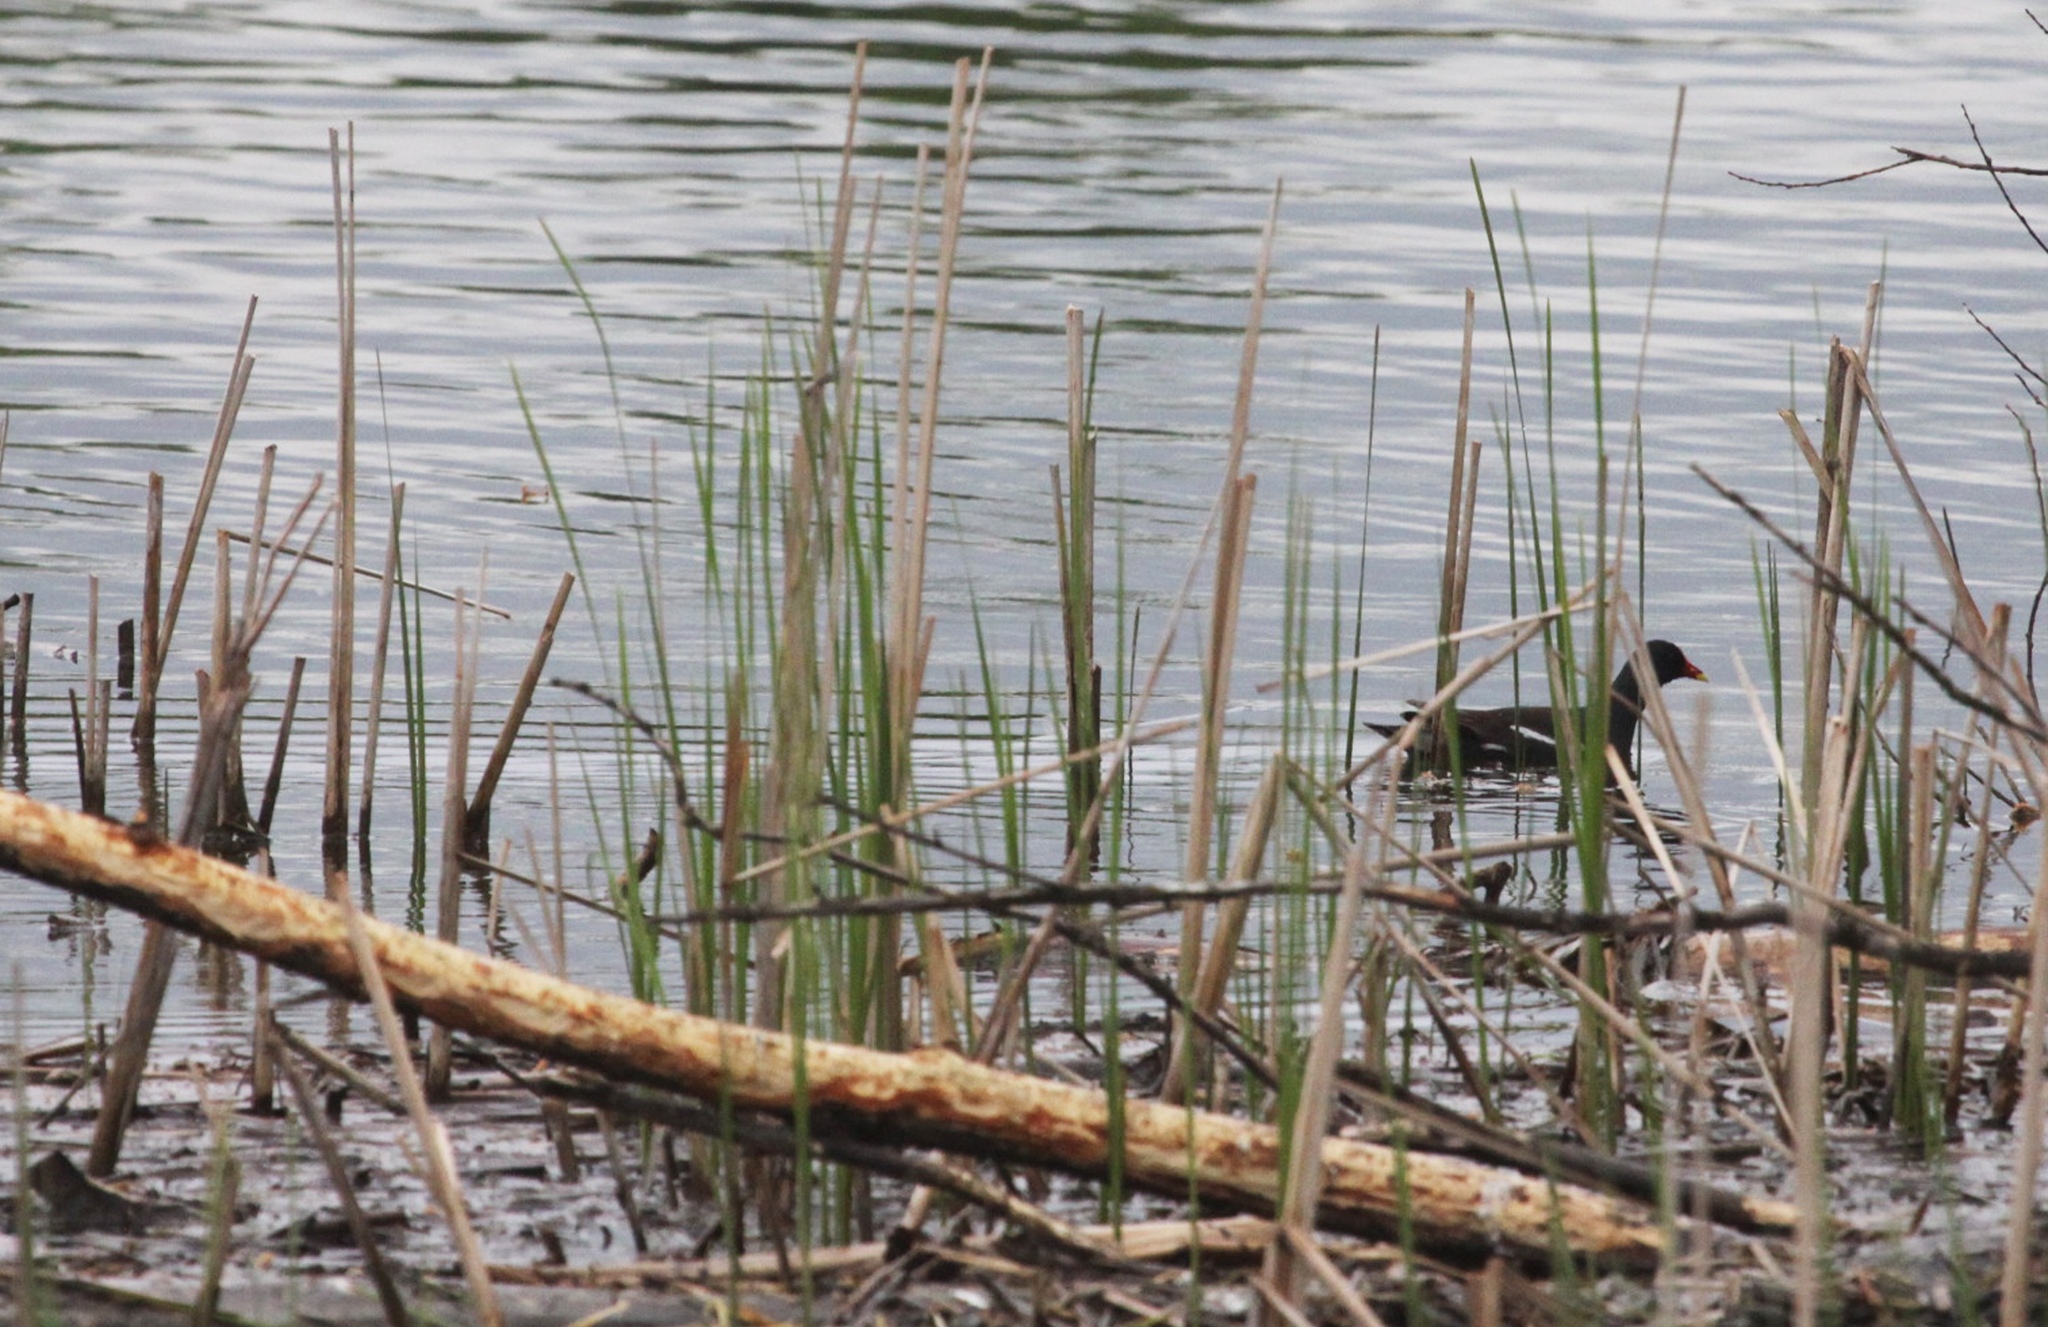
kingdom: Animalia
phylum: Chordata
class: Aves
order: Gruiformes
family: Rallidae
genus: Gallinula
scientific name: Gallinula chloropus
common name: Common moorhen
